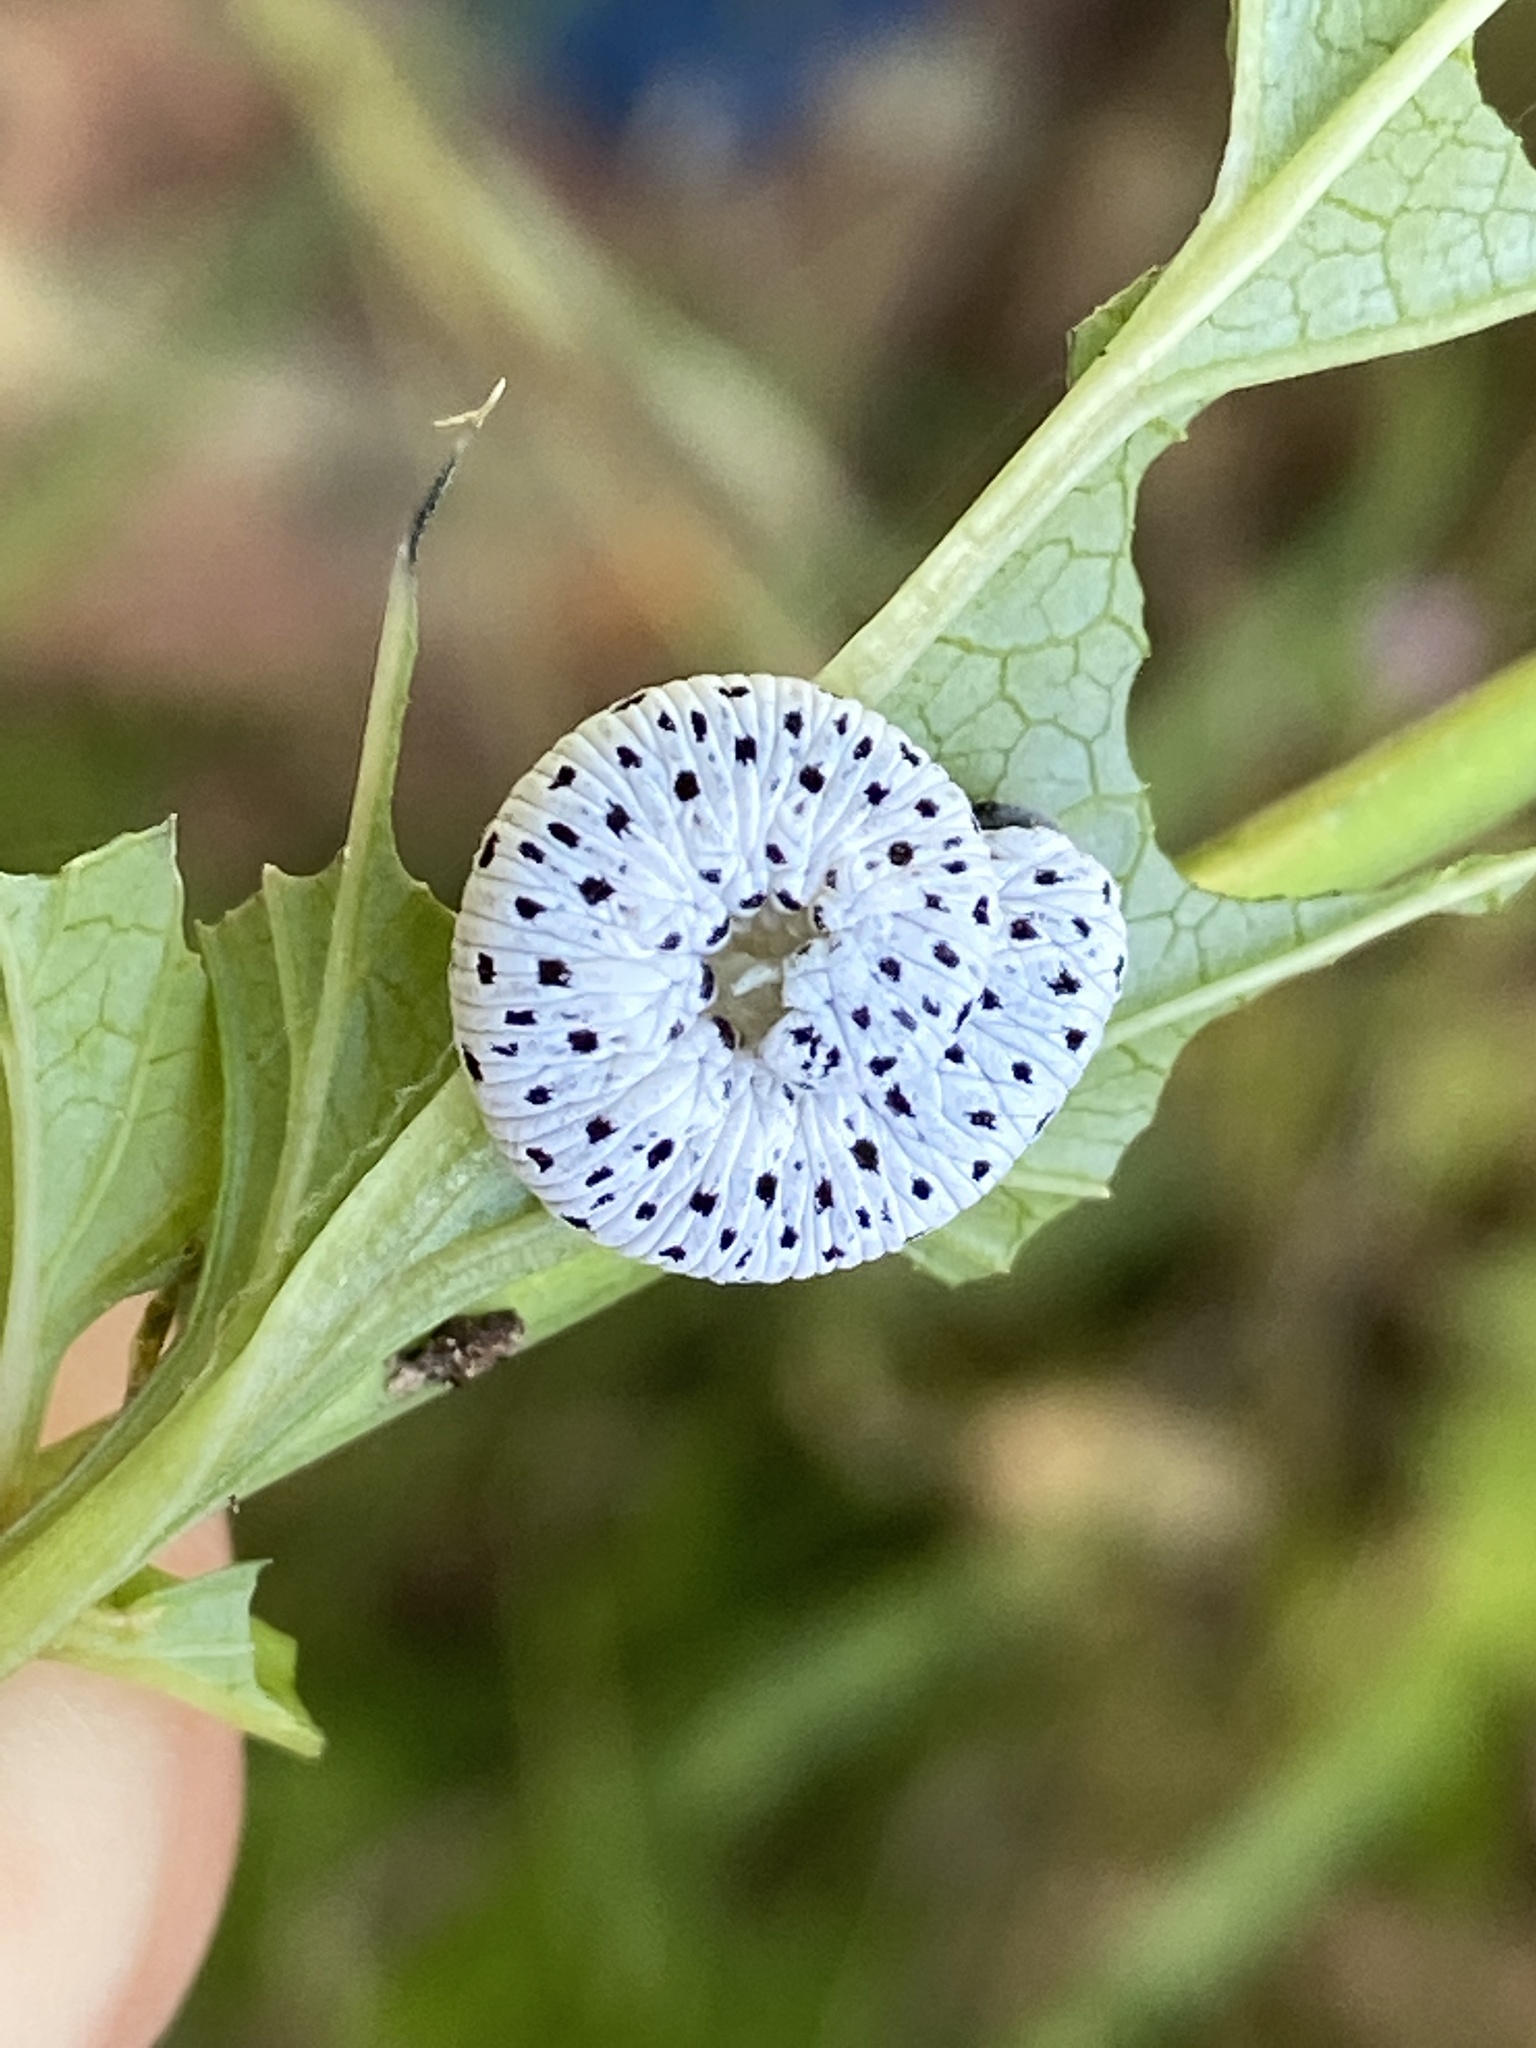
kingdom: Animalia
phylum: Arthropoda
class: Insecta
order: Hymenoptera
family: Tenthredinidae
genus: Tenthredo
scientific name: Tenthredo scrophulariae
